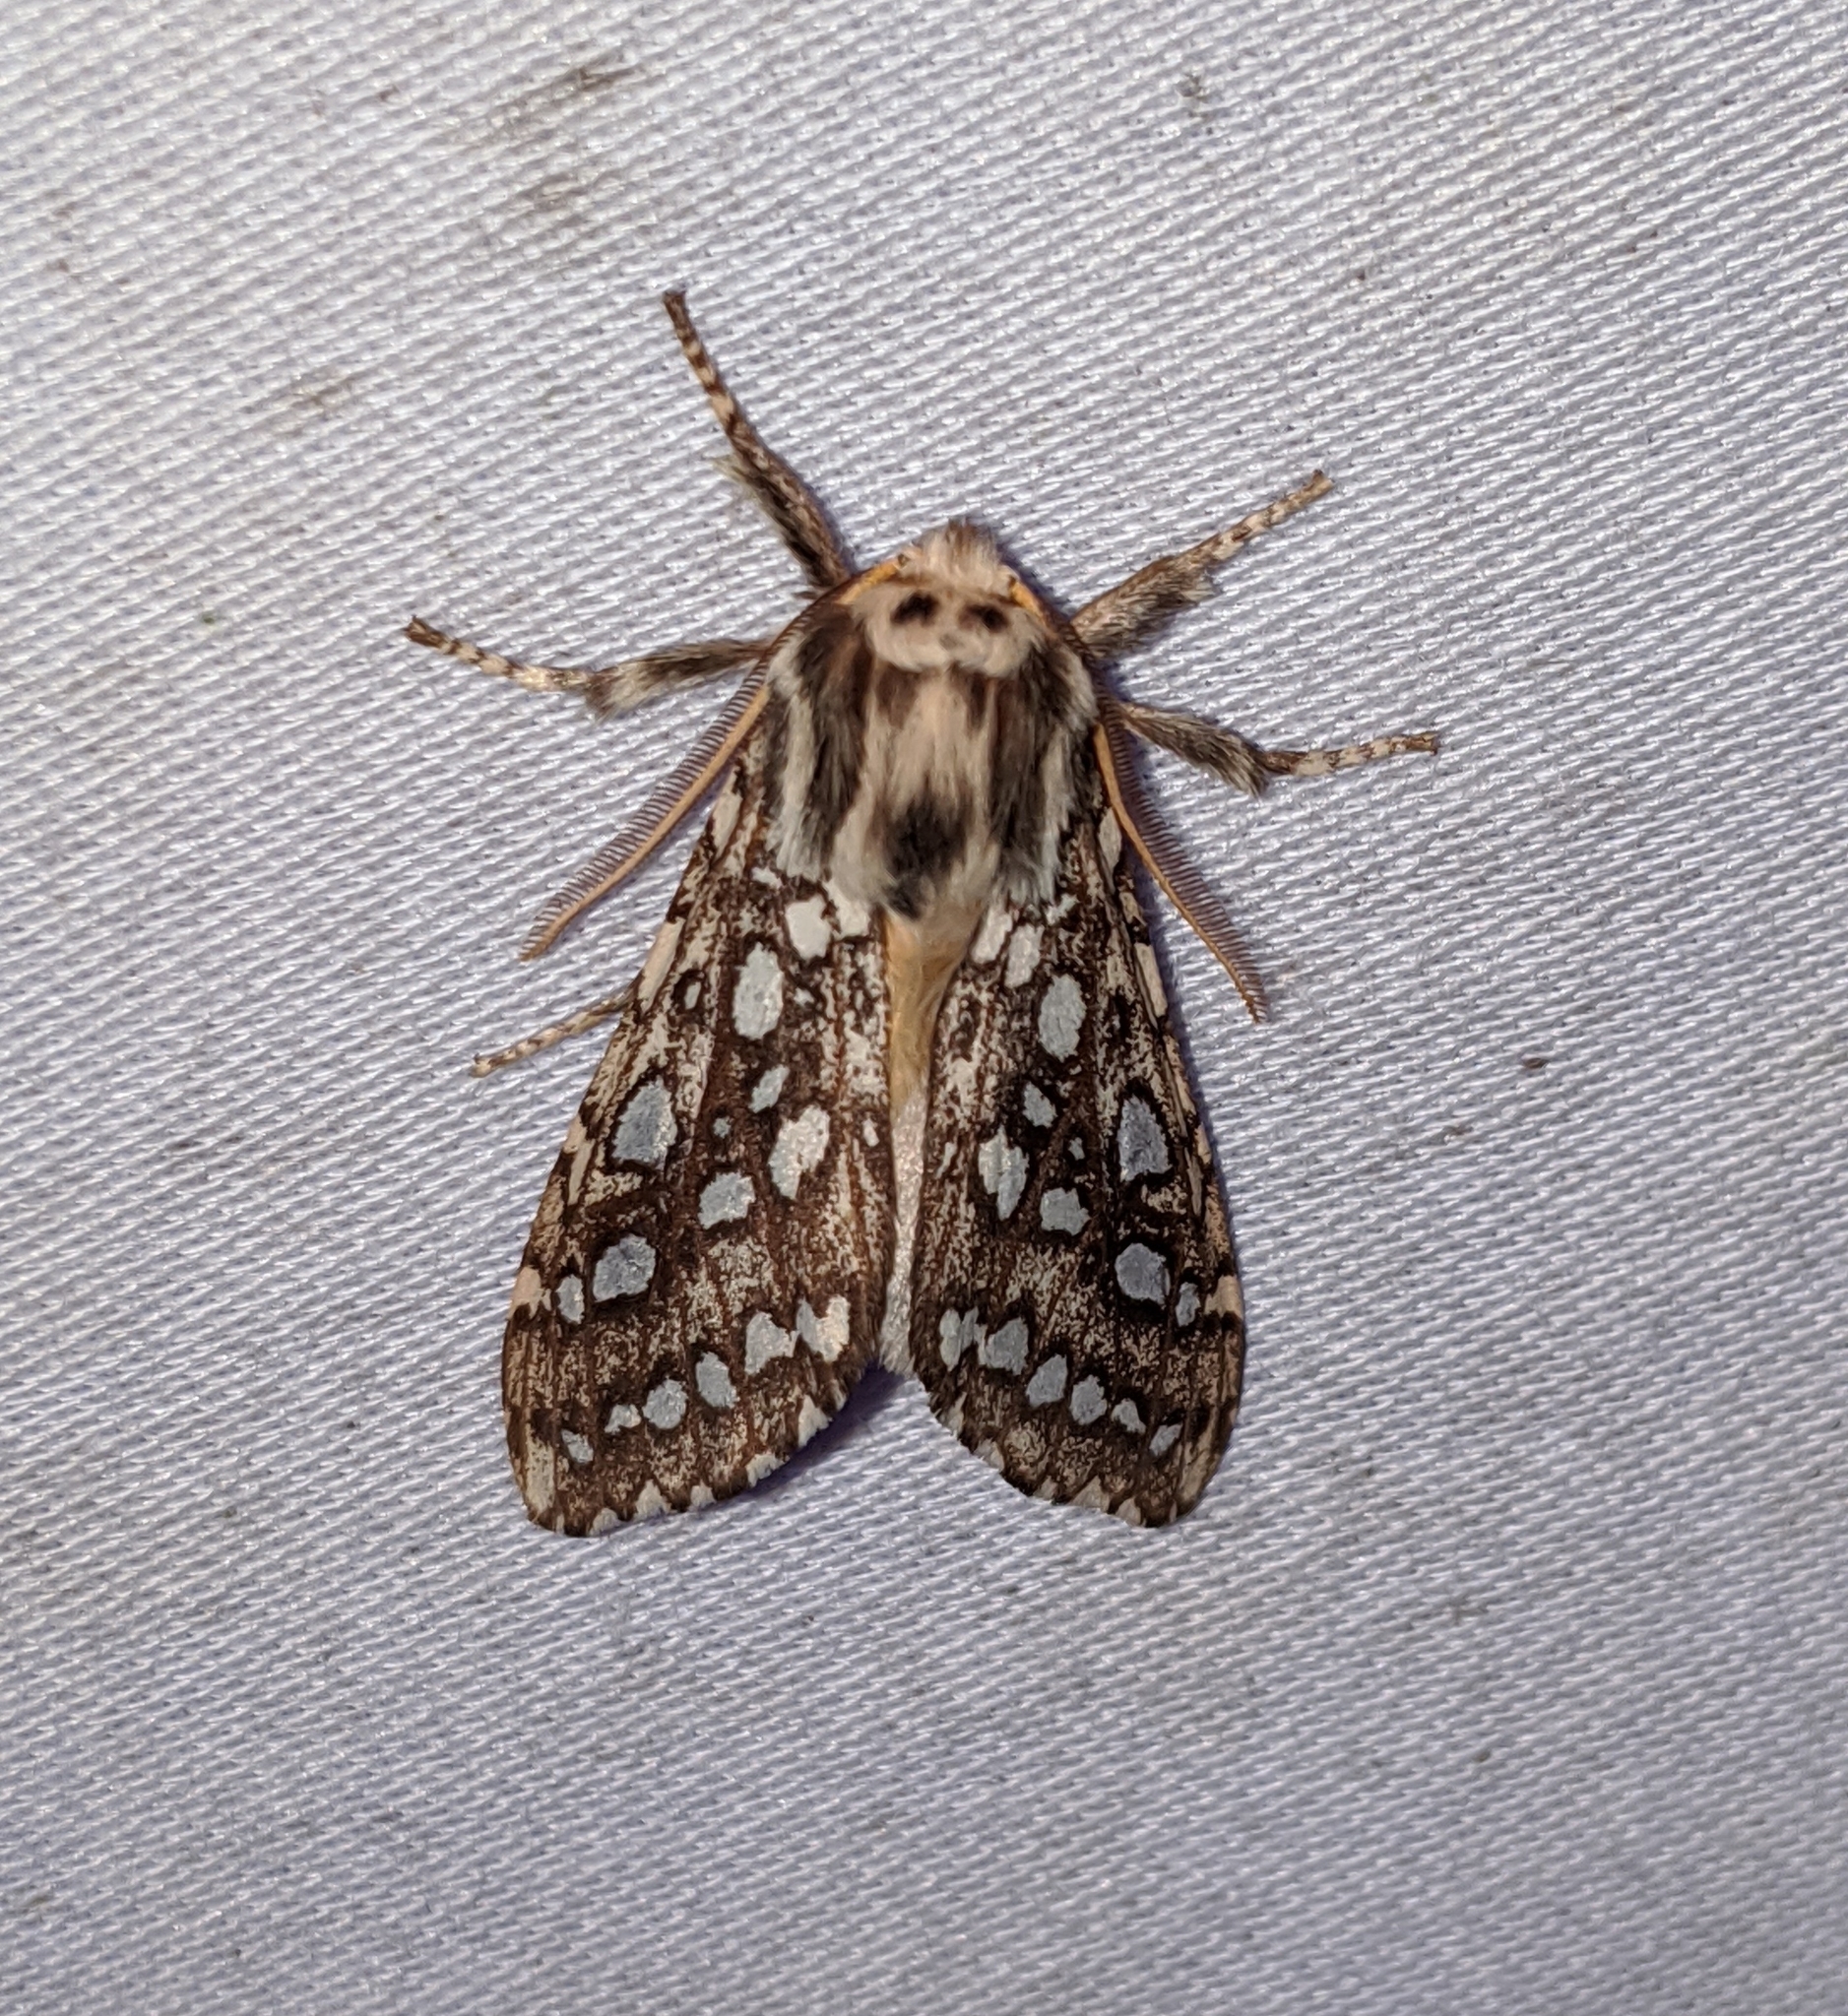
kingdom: Animalia
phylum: Arthropoda
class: Insecta
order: Lepidoptera
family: Erebidae
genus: Lophocampa
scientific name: Lophocampa argentata
